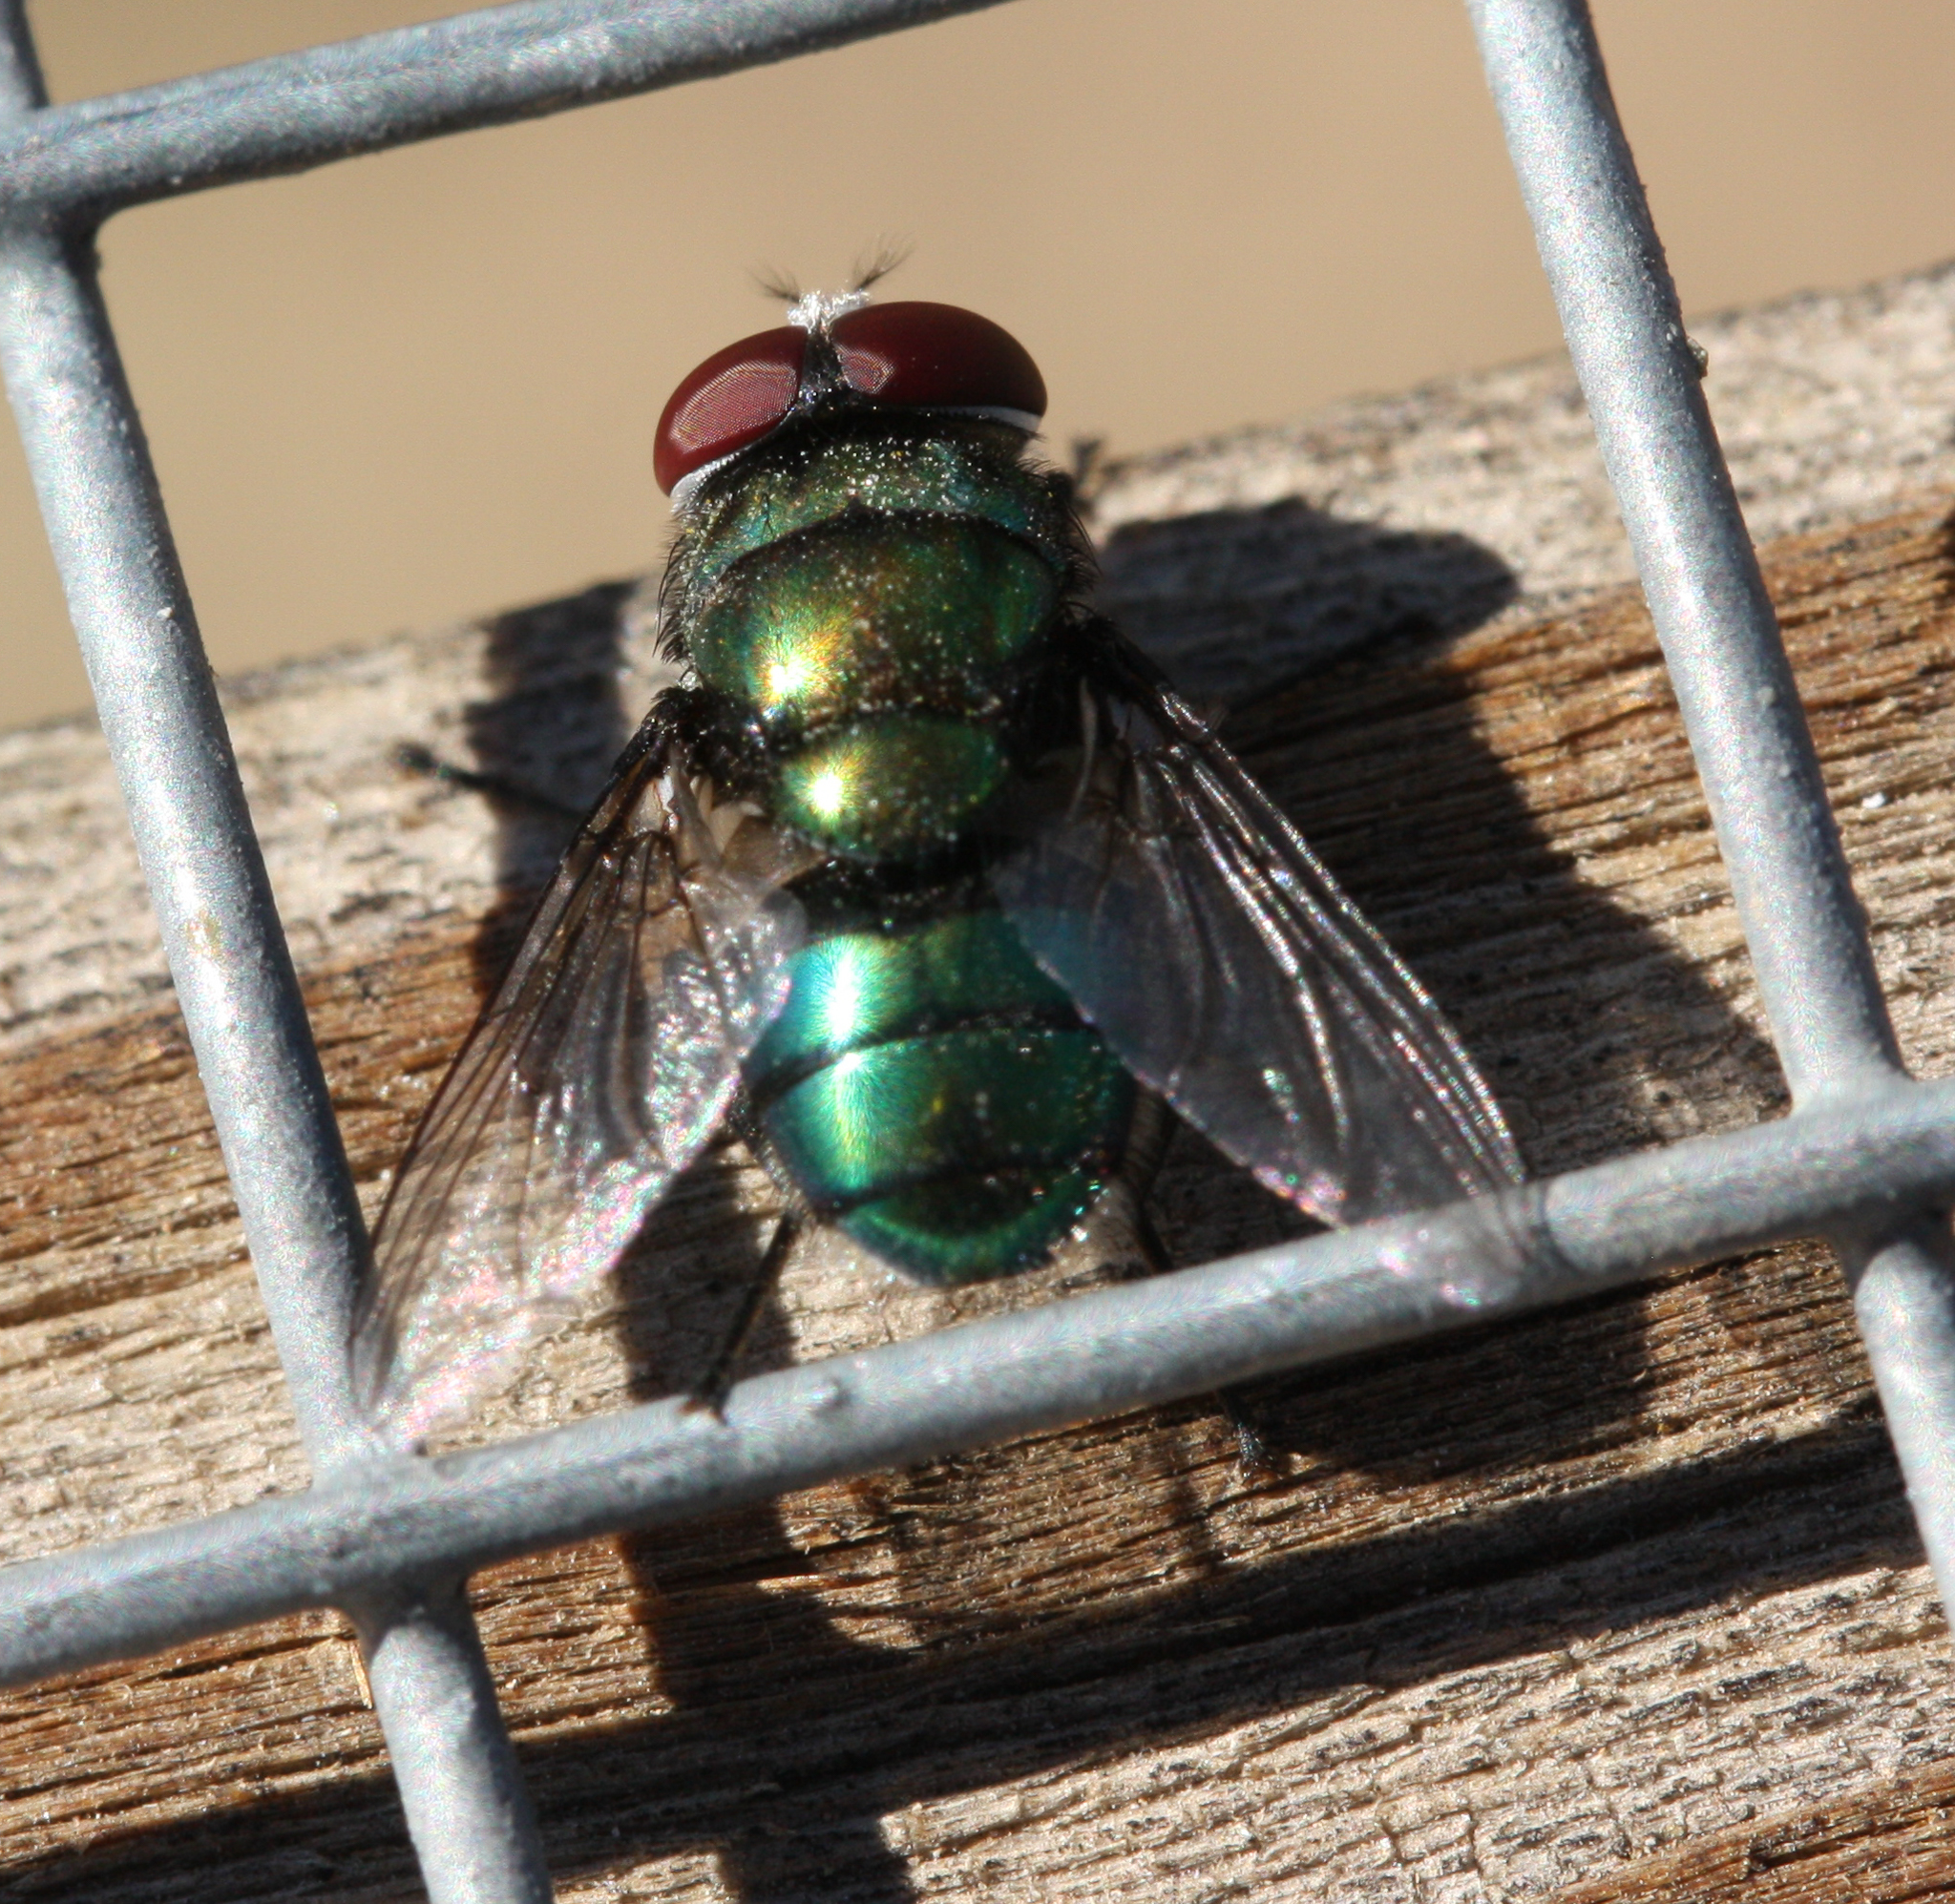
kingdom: Animalia
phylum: Arthropoda
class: Insecta
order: Diptera
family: Calliphoridae
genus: Chrysomya
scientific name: Chrysomya rufifacies
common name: Blow fly
